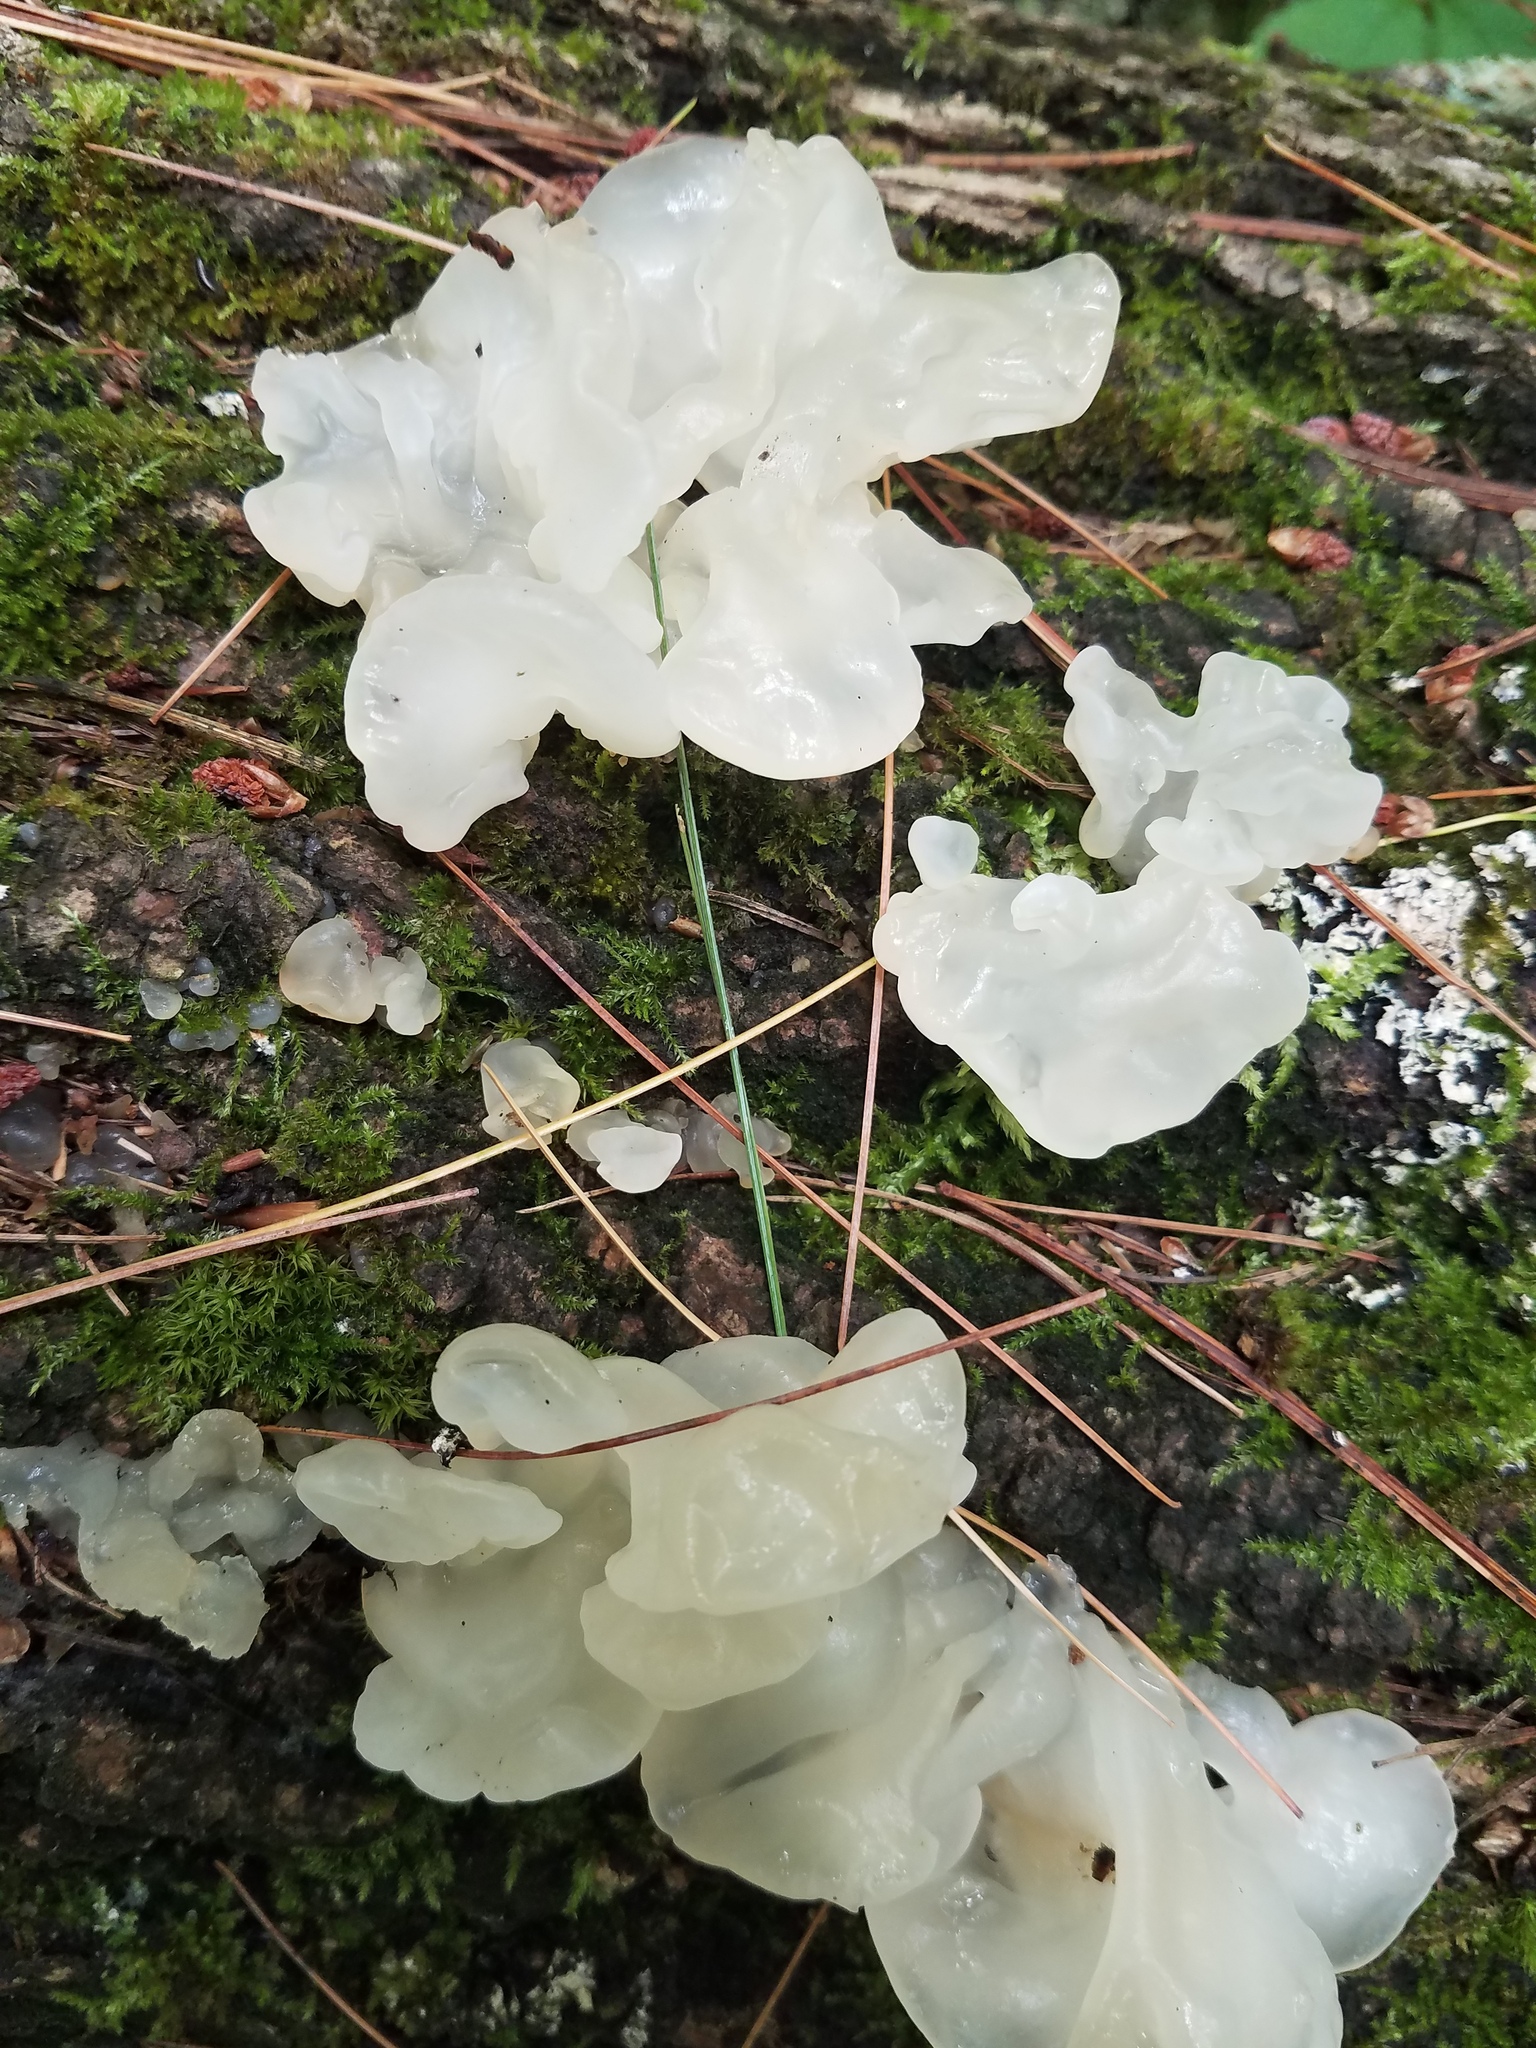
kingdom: Fungi
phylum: Basidiomycota
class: Agaricomycetes
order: Auriculariales
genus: Ductifera
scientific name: Ductifera pululahuana
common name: White jelly fungus
